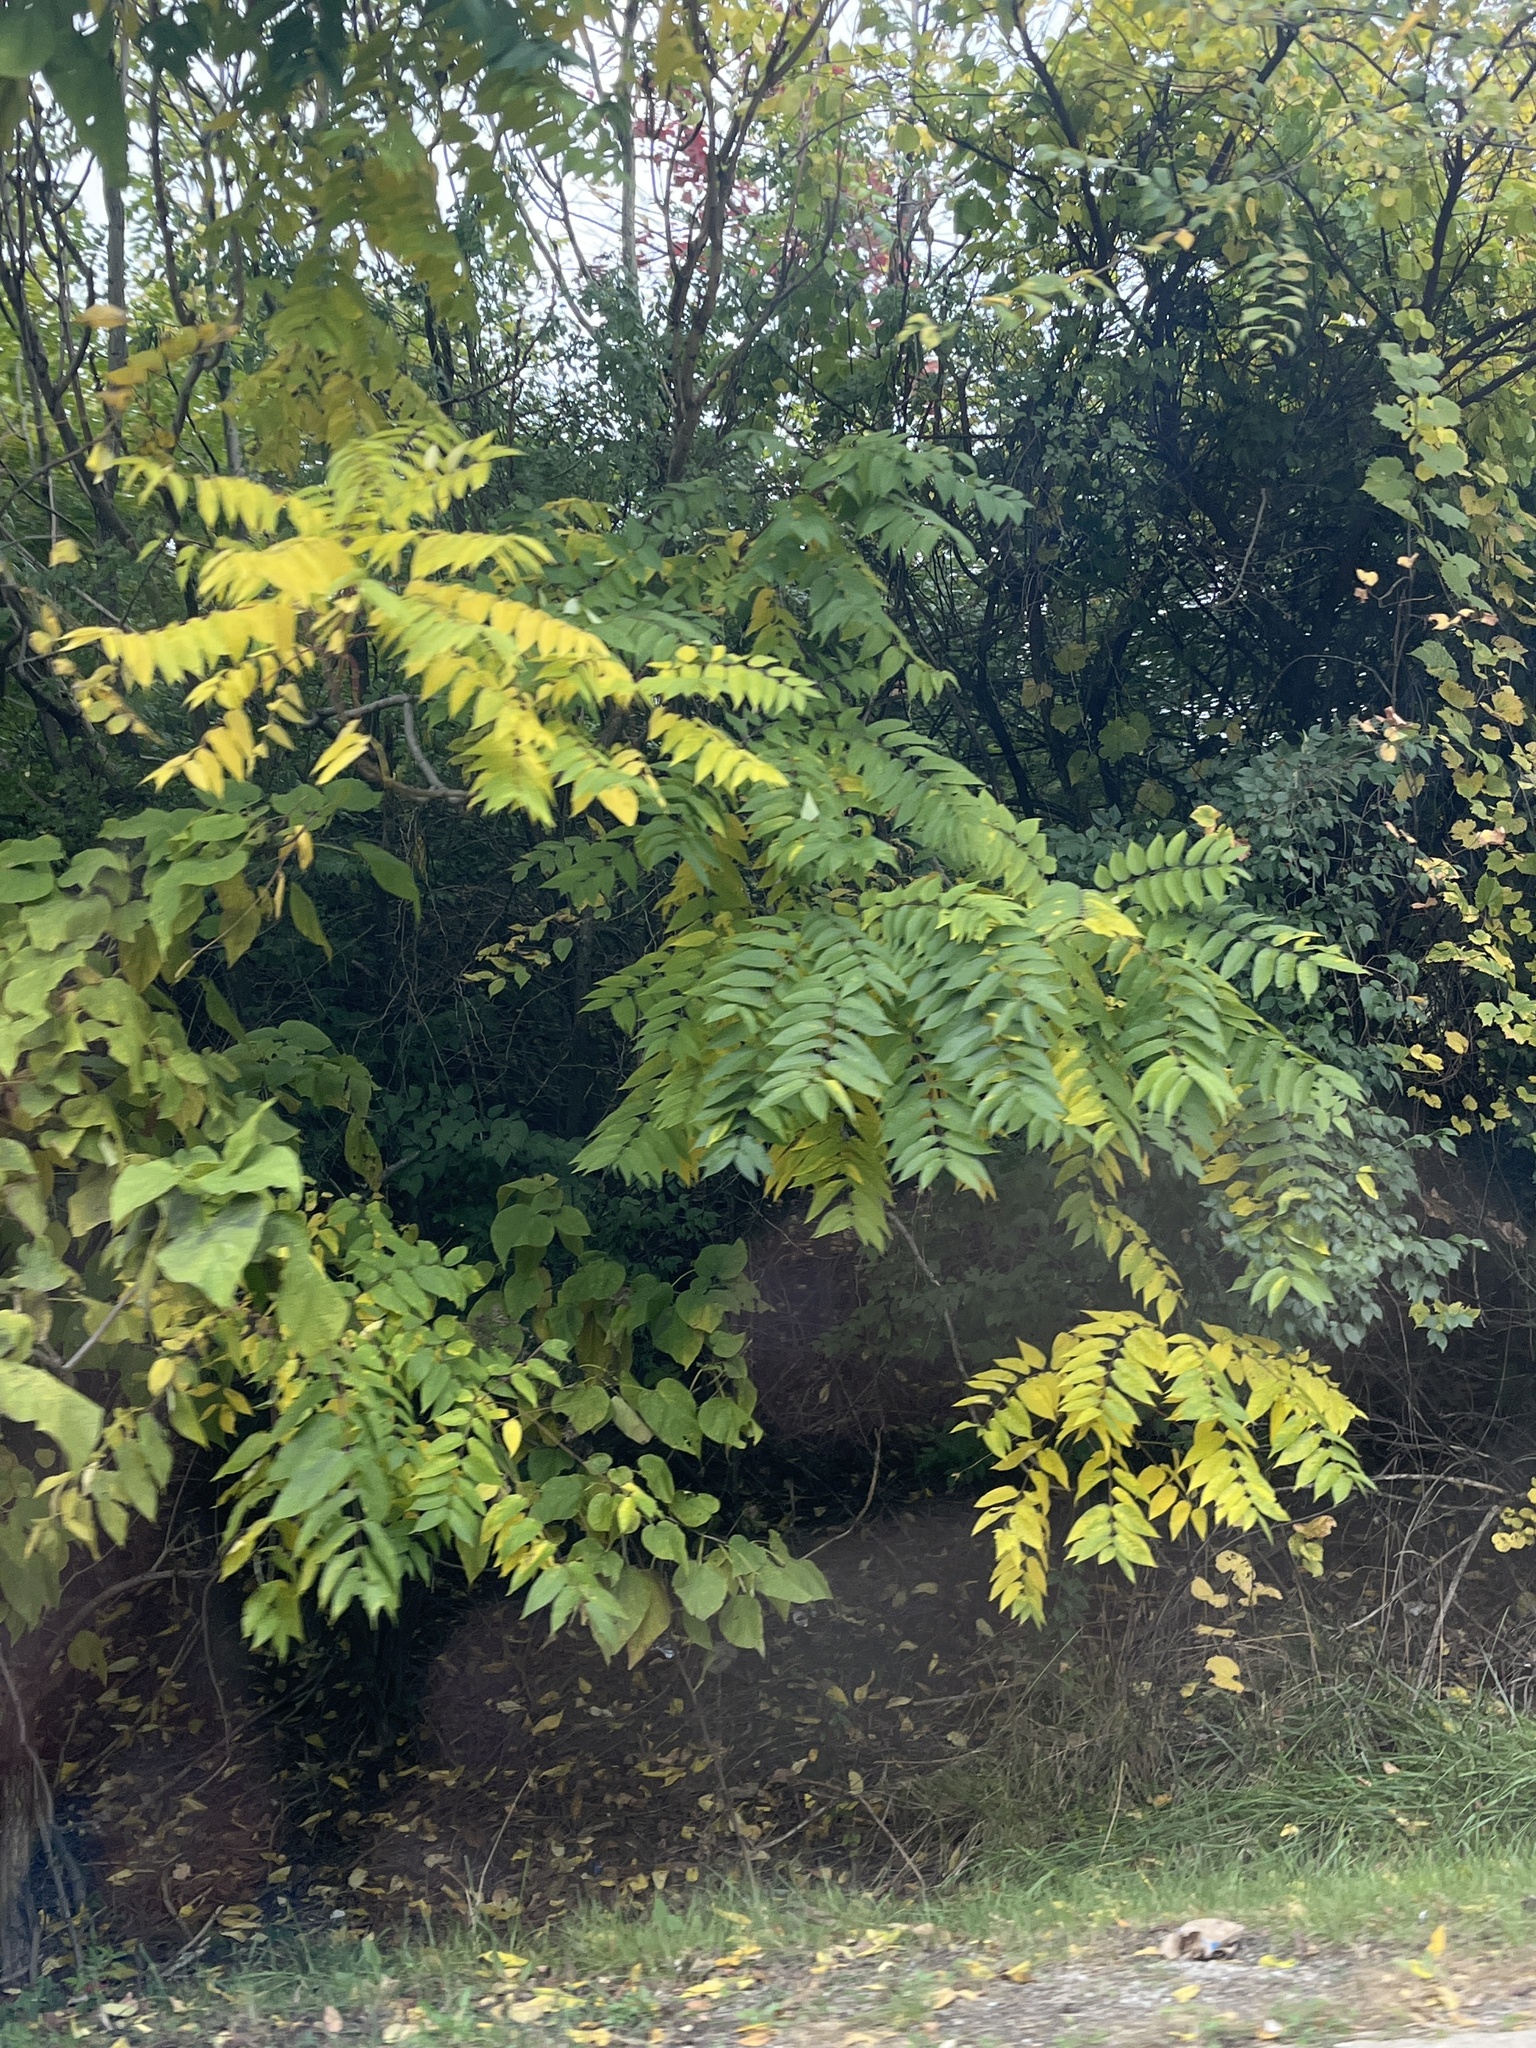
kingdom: Plantae
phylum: Tracheophyta
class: Magnoliopsida
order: Sapindales
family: Simaroubaceae
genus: Ailanthus
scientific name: Ailanthus altissima
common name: Tree-of-heaven
